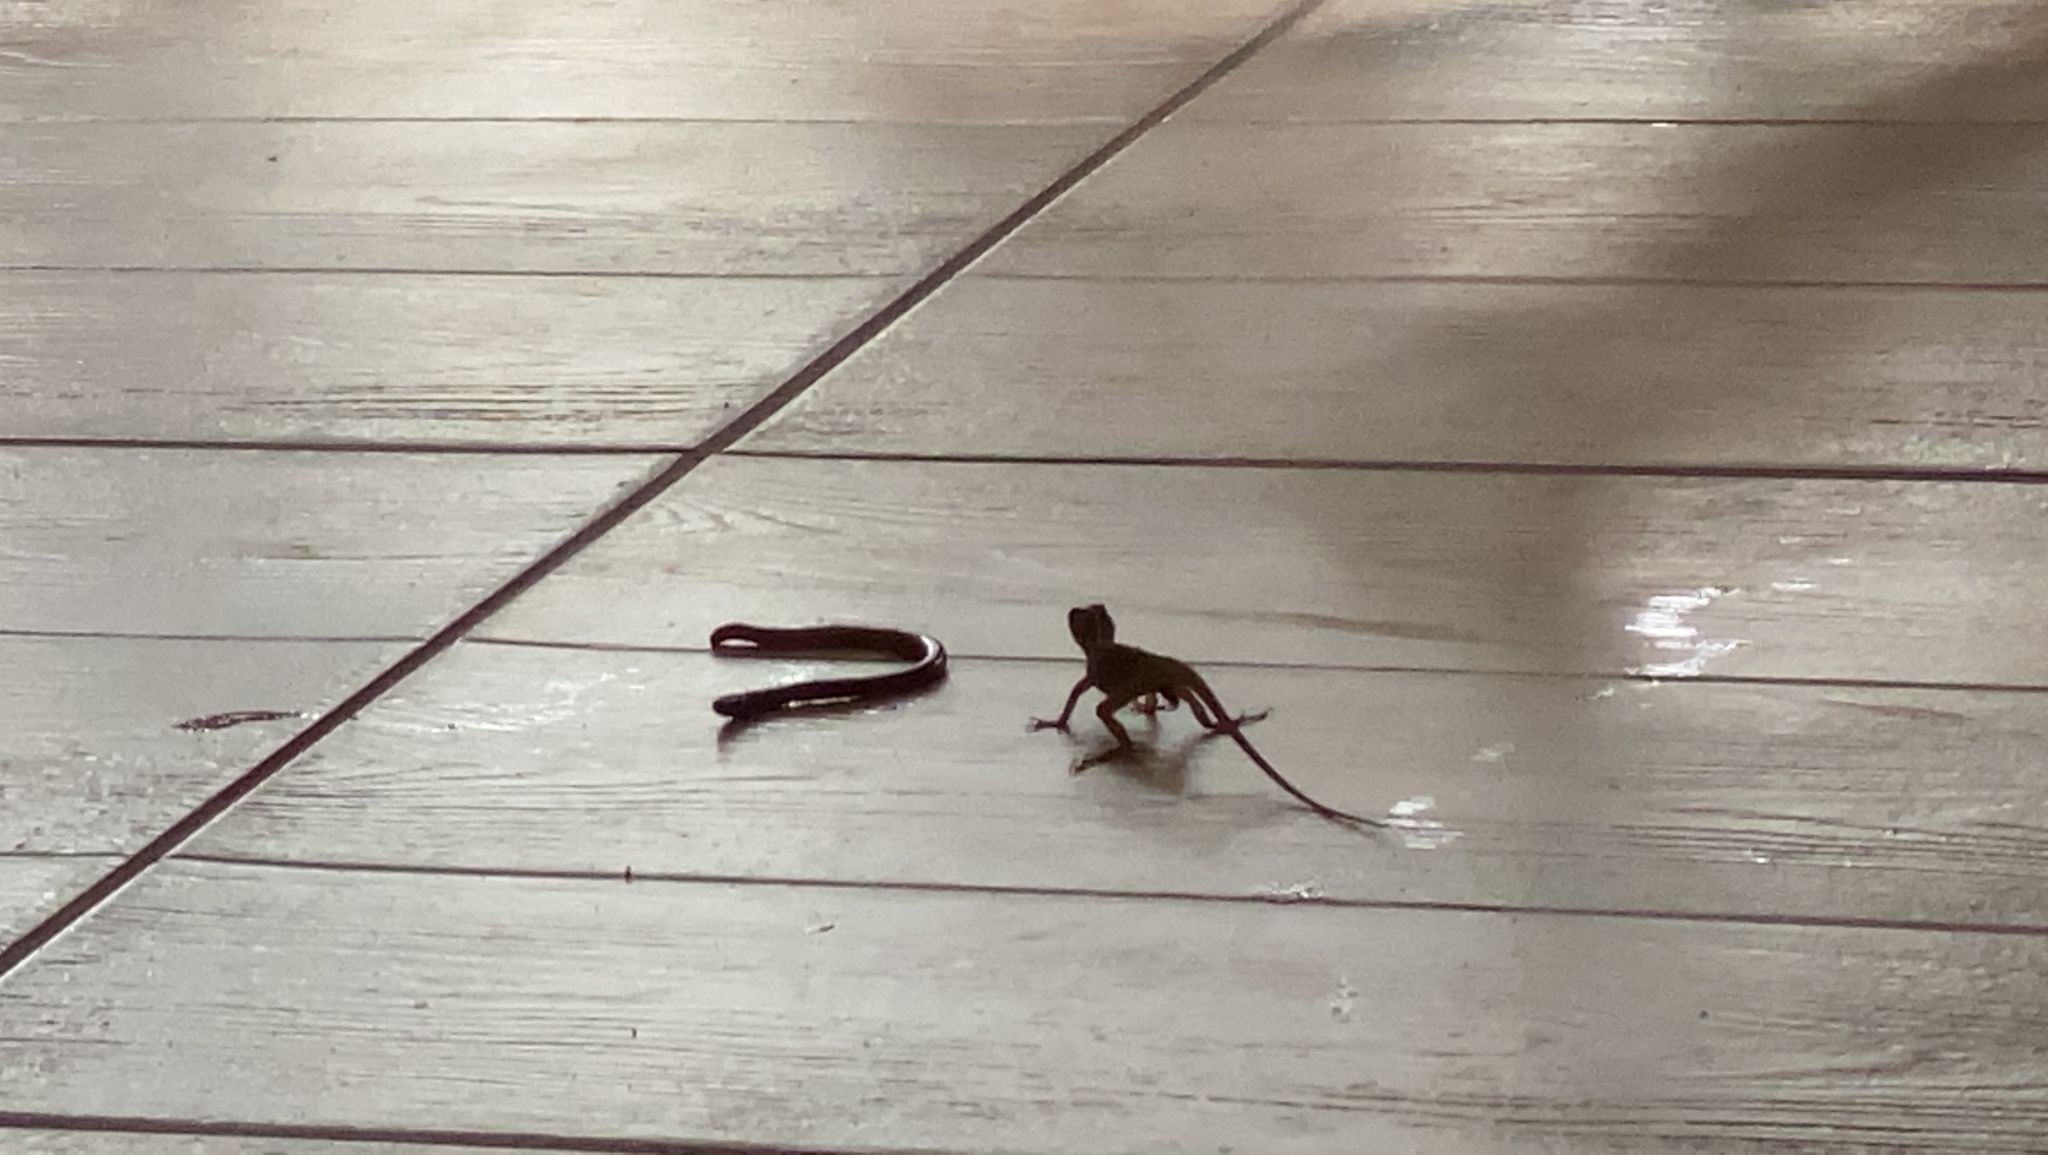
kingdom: Animalia
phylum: Chordata
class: Squamata
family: Dactyloidae
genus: Anolis
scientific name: Anolis sagrei
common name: Brown anole
